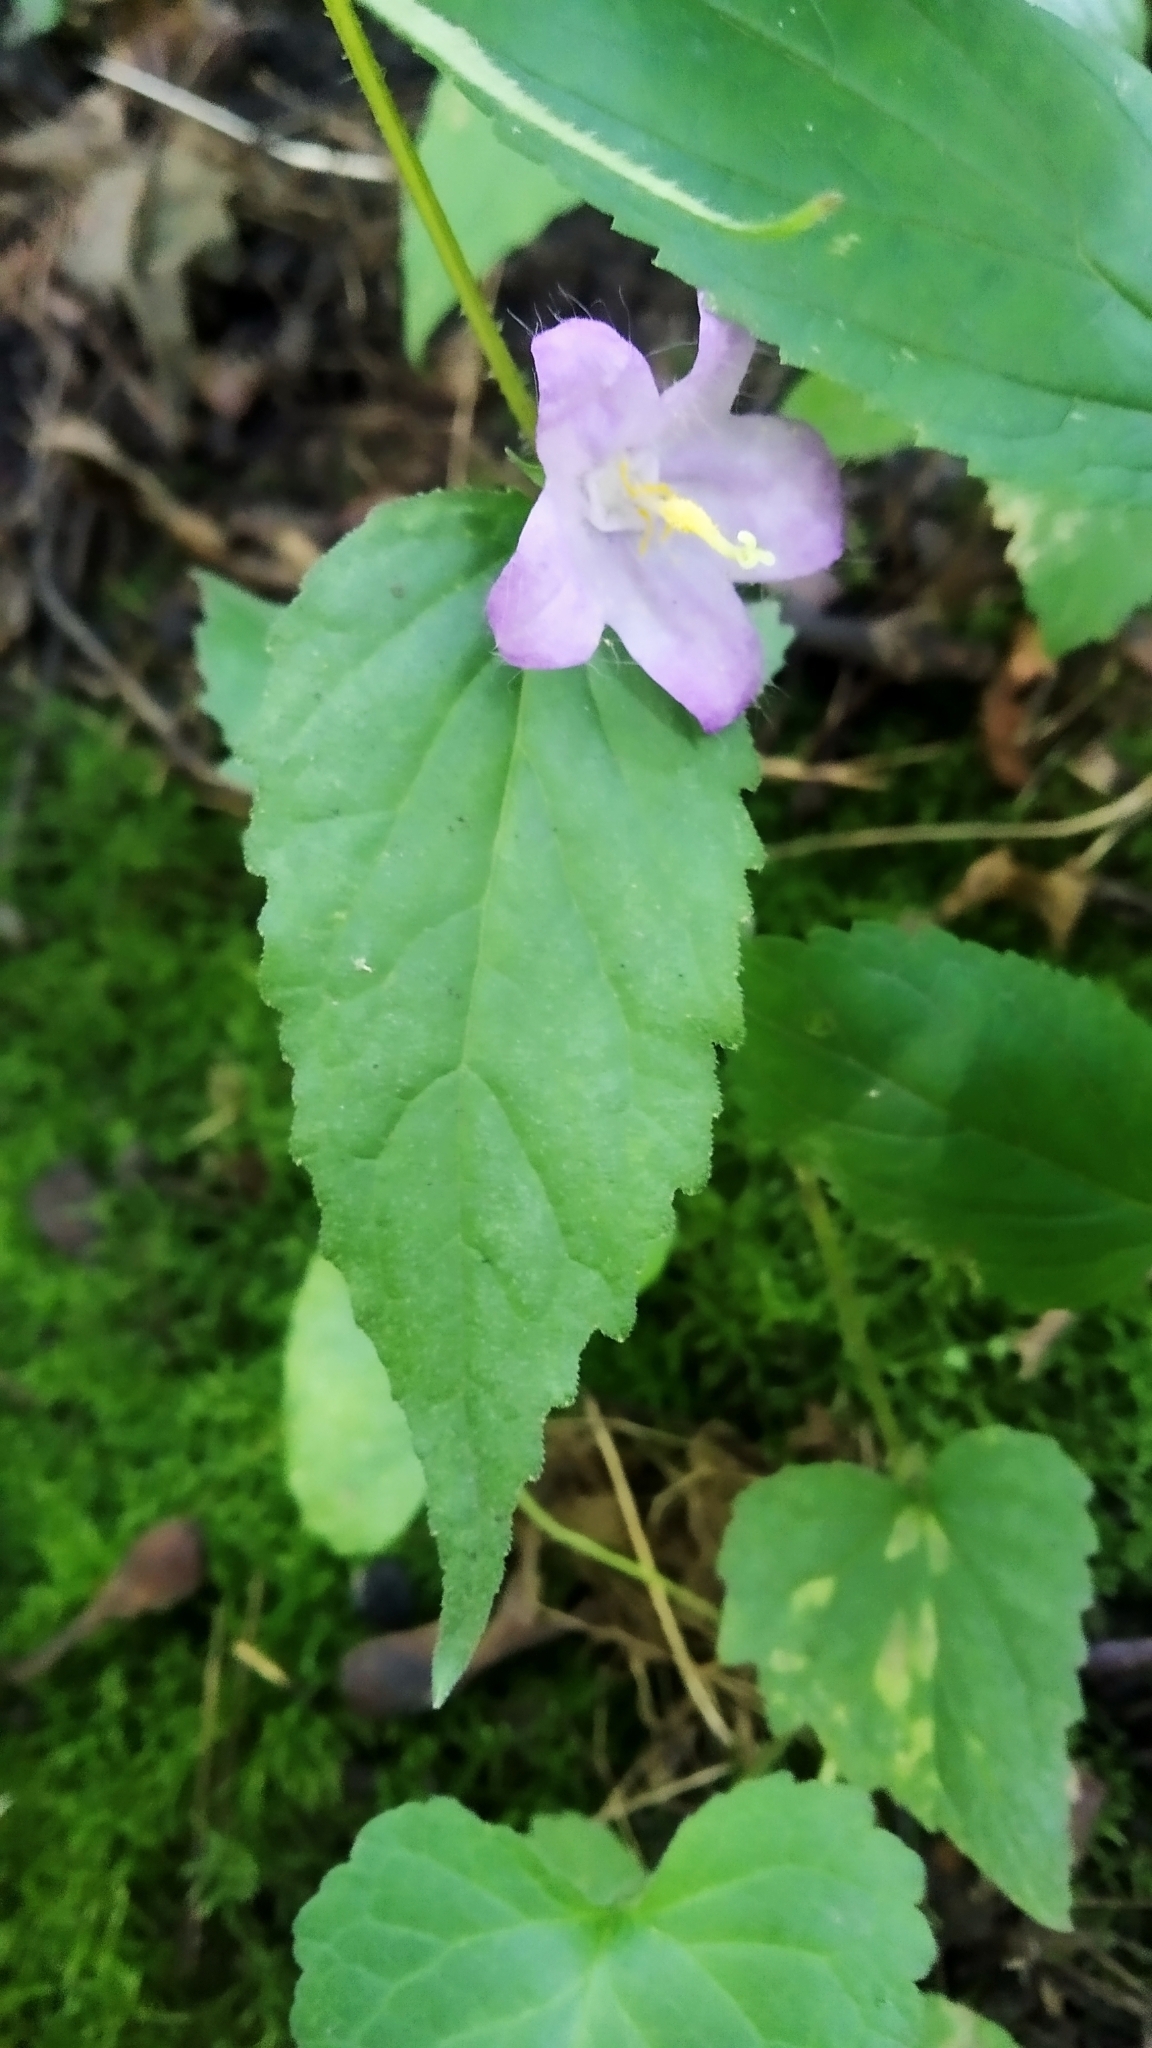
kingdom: Plantae
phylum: Tracheophyta
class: Magnoliopsida
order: Asterales
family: Campanulaceae
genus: Campanula
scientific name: Campanula trachelium
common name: Nettle-leaved bellflower
